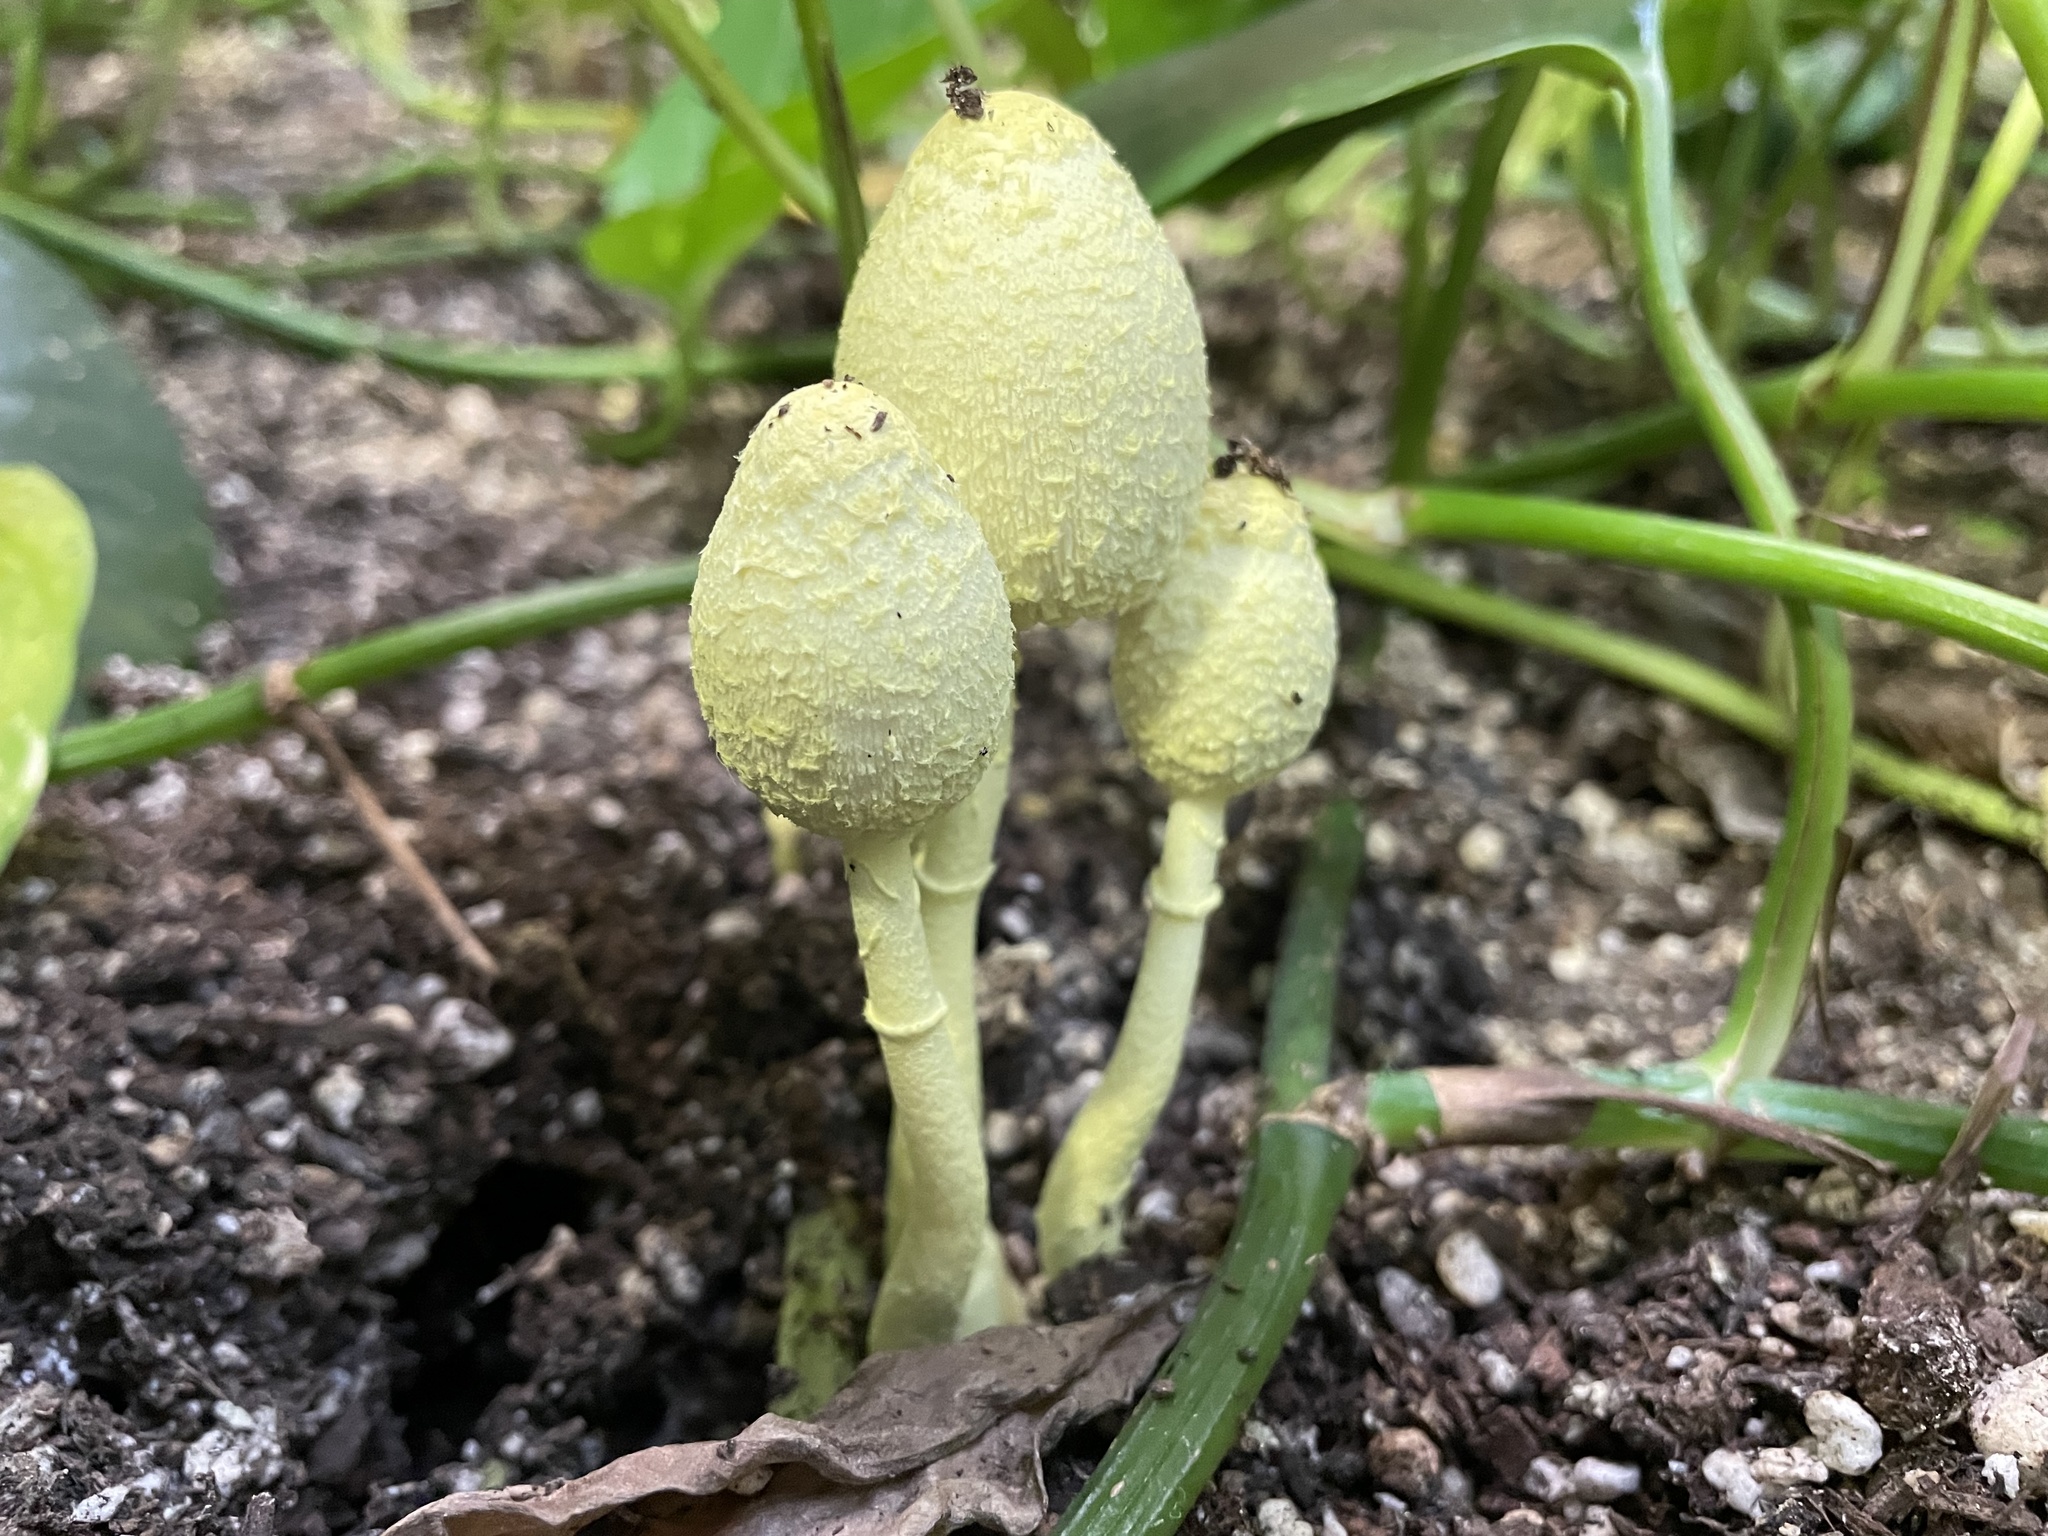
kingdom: Fungi
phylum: Basidiomycota
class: Agaricomycetes
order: Agaricales
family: Agaricaceae
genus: Leucocoprinus
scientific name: Leucocoprinus birnbaumii
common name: Plantpot dapperling
